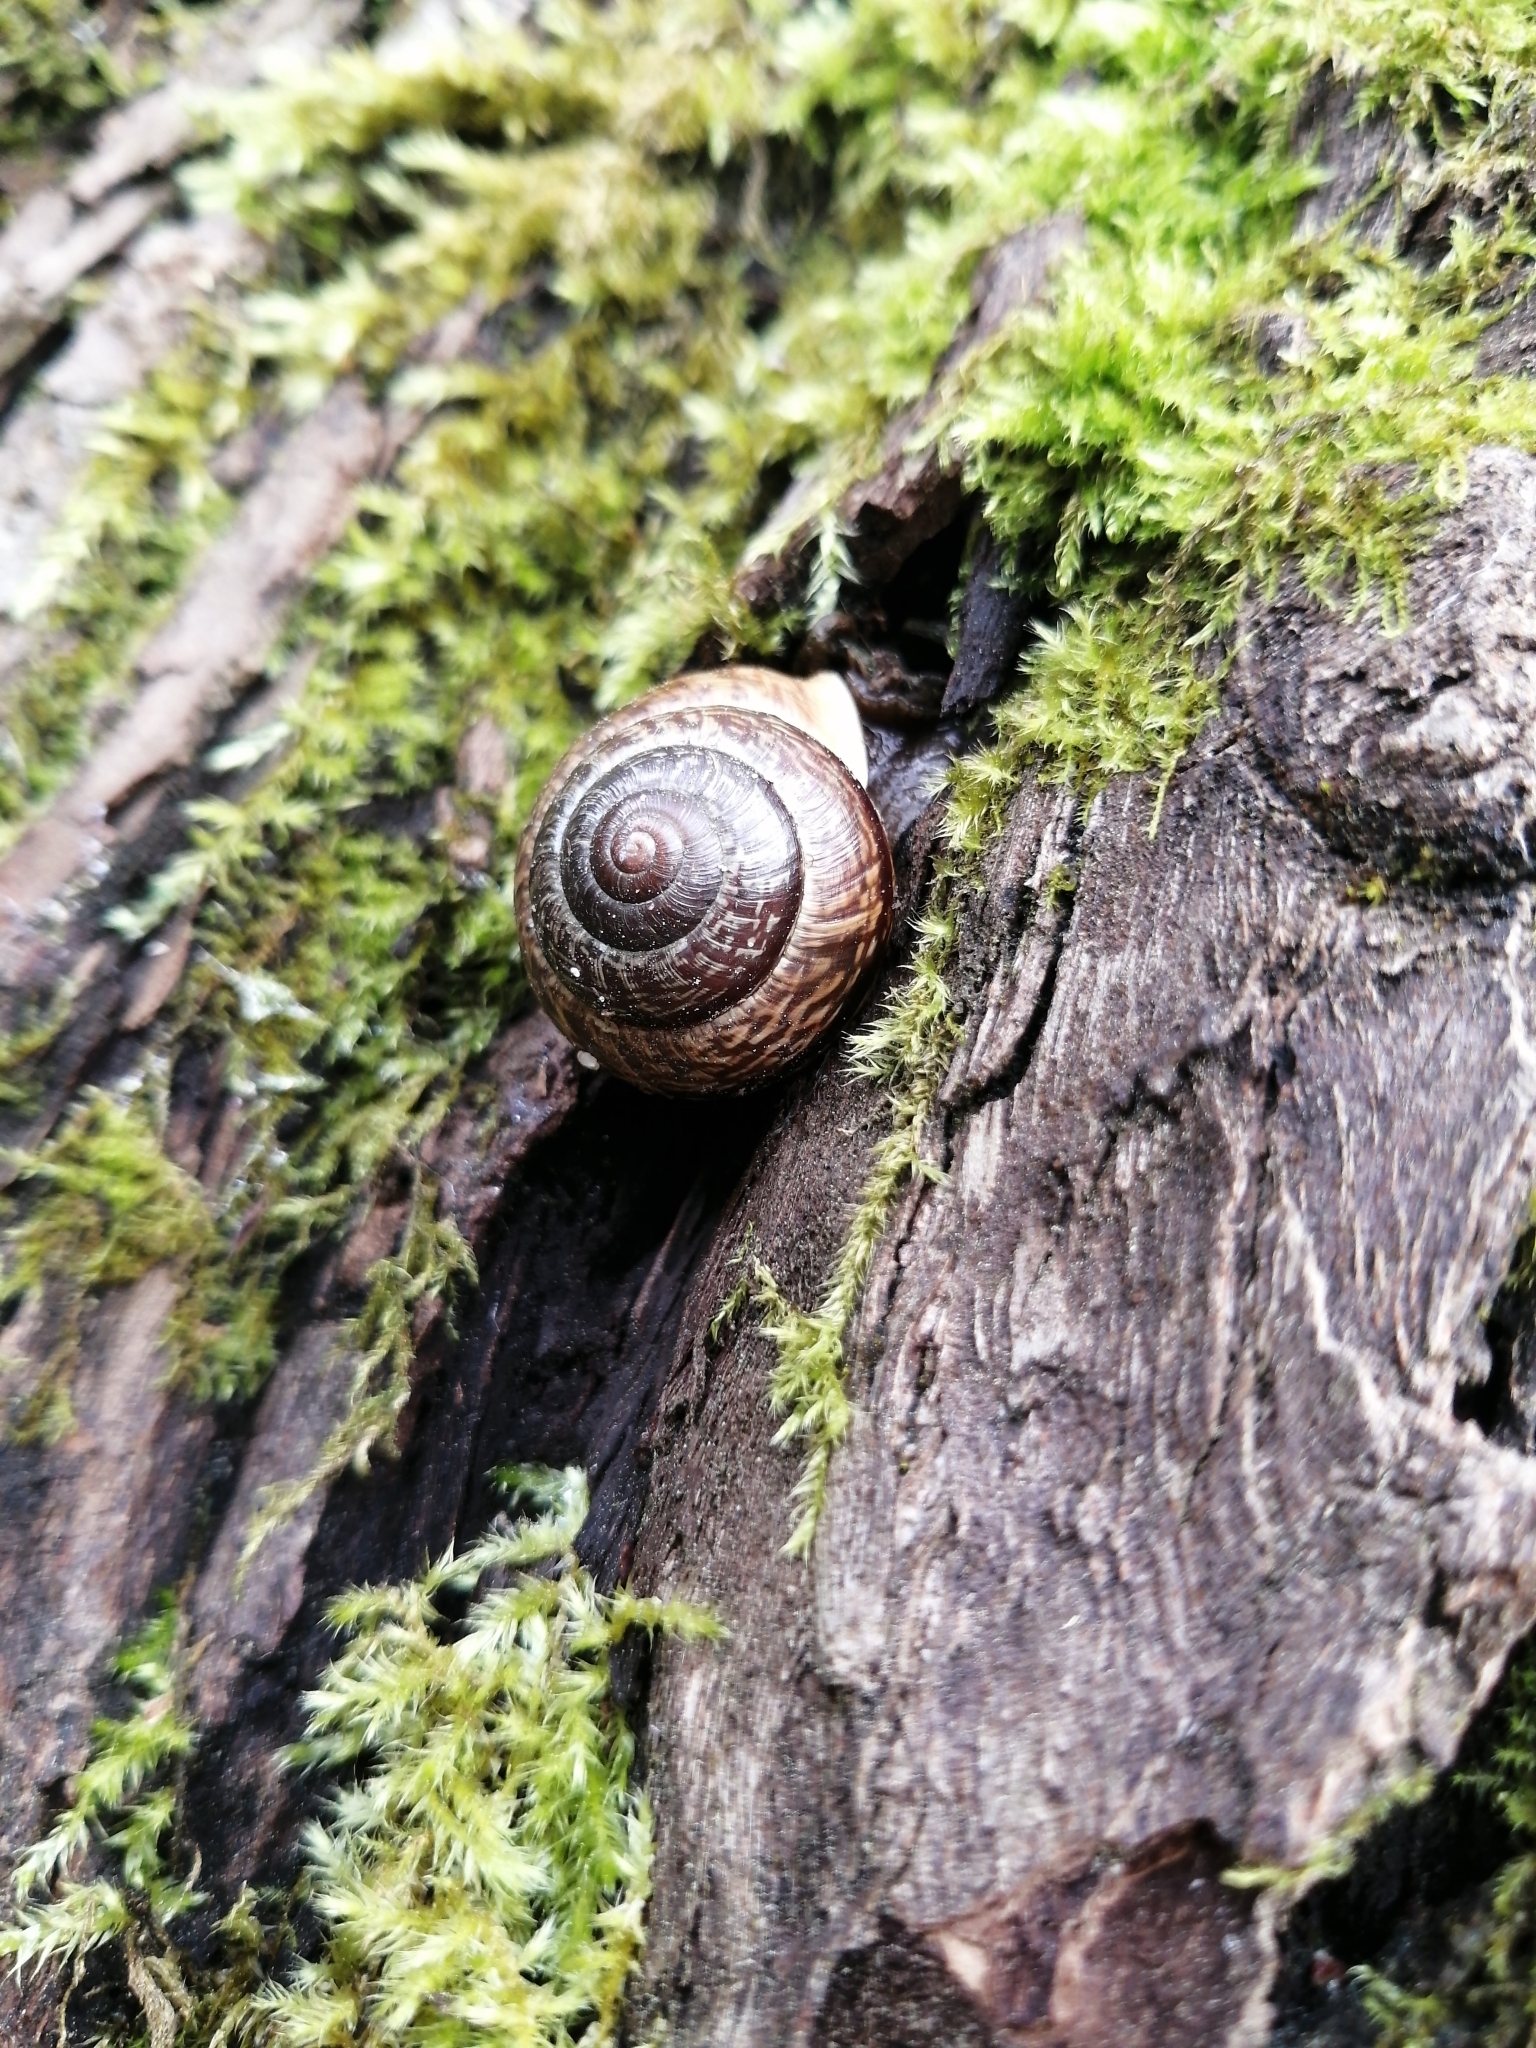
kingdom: Animalia
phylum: Mollusca
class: Gastropoda
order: Stylommatophora
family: Helicidae
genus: Arianta
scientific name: Arianta arbustorum
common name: Copse snail
